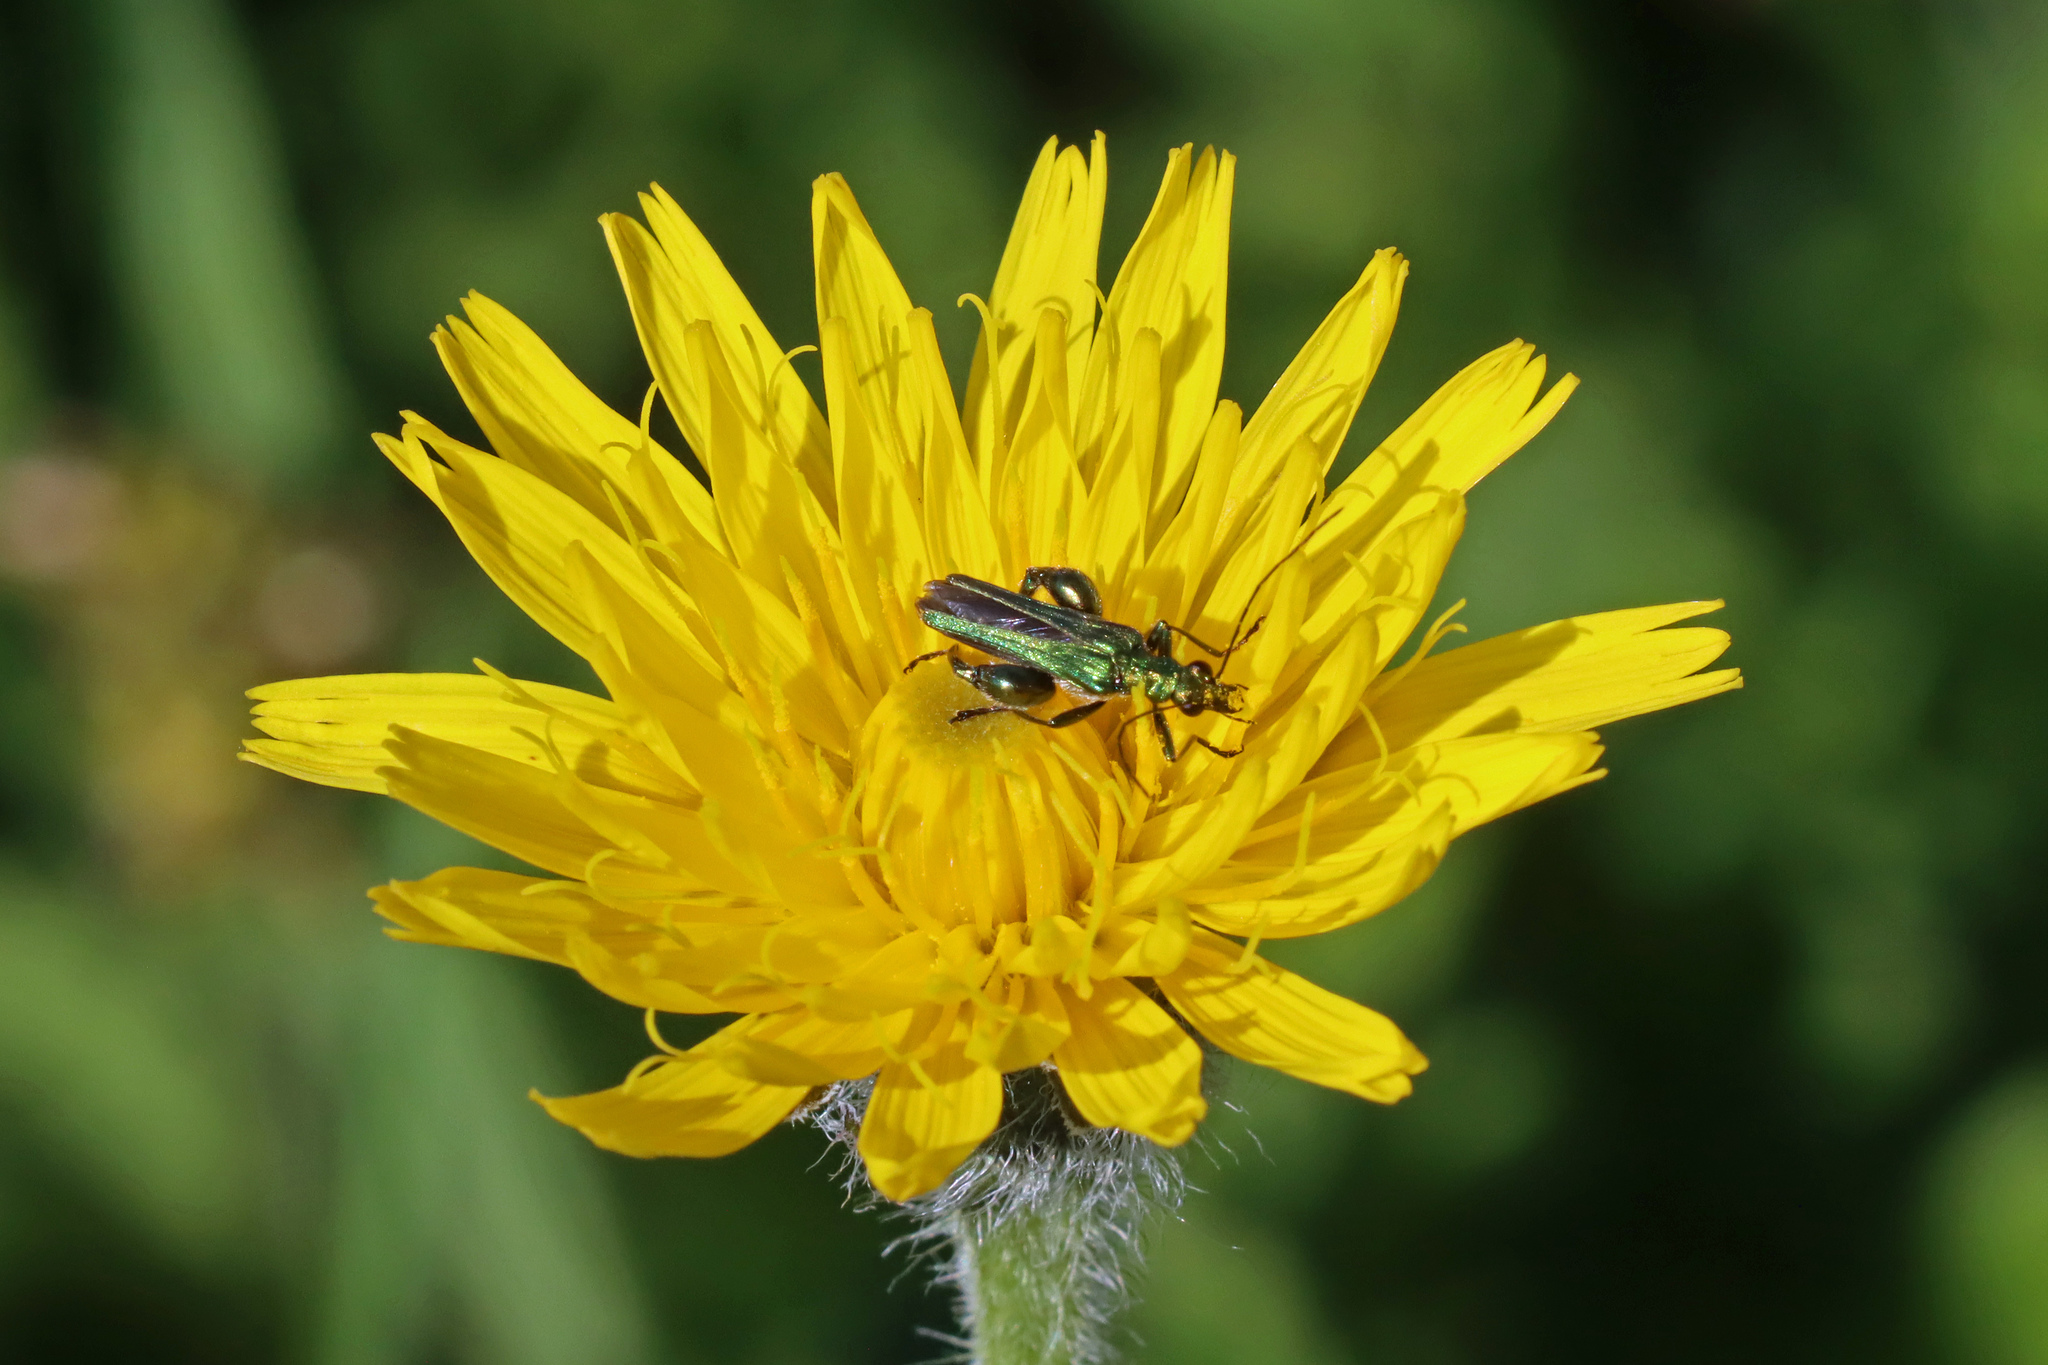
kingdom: Animalia
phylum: Arthropoda
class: Insecta
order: Coleoptera
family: Oedemeridae
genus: Oedemera
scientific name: Oedemera nobilis
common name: Swollen-thighed beetle
